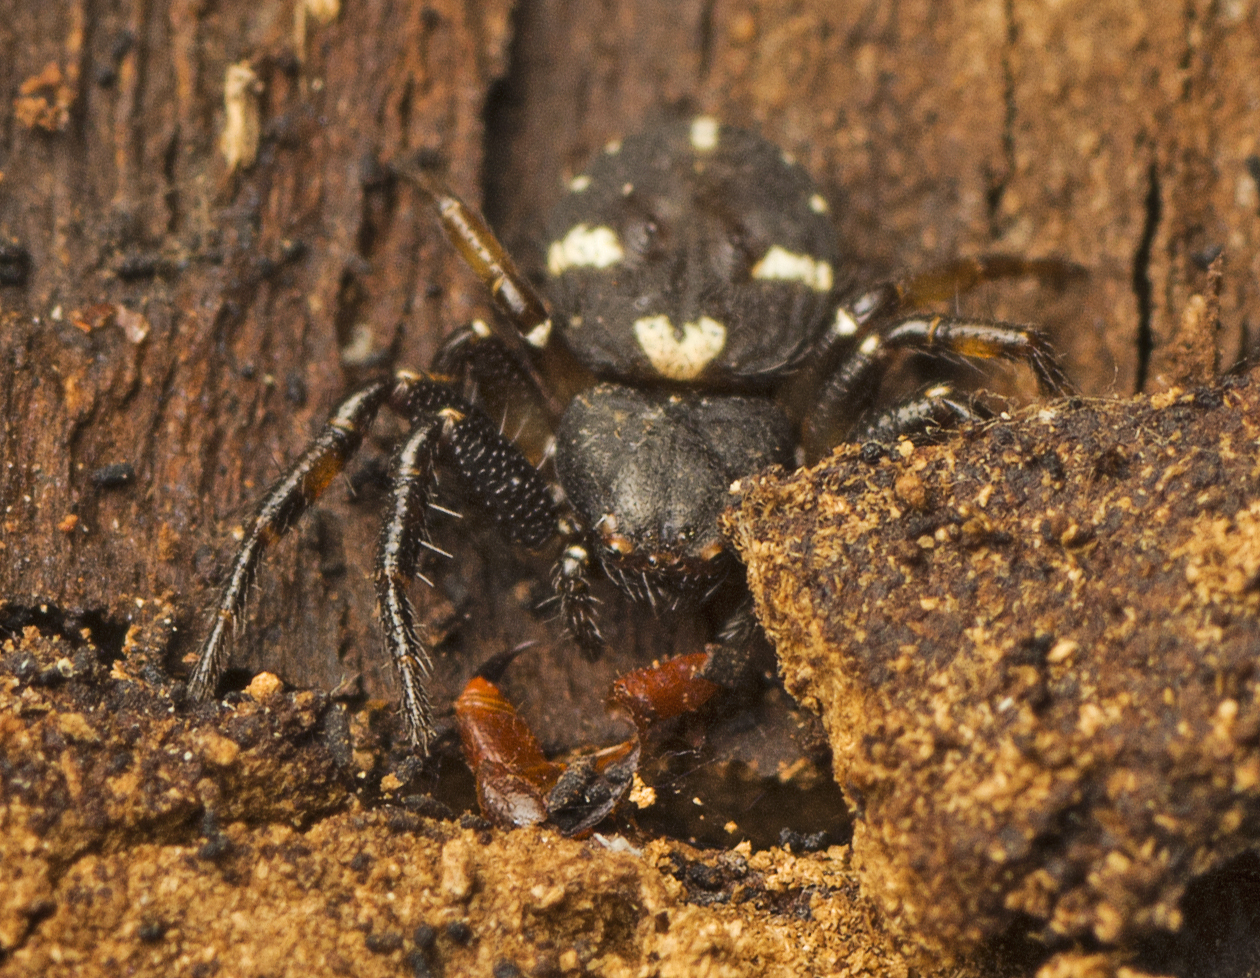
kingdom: Animalia
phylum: Arthropoda
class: Arachnida
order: Araneae
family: Thomisidae
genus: Tharpyna
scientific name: Tharpyna decorata
